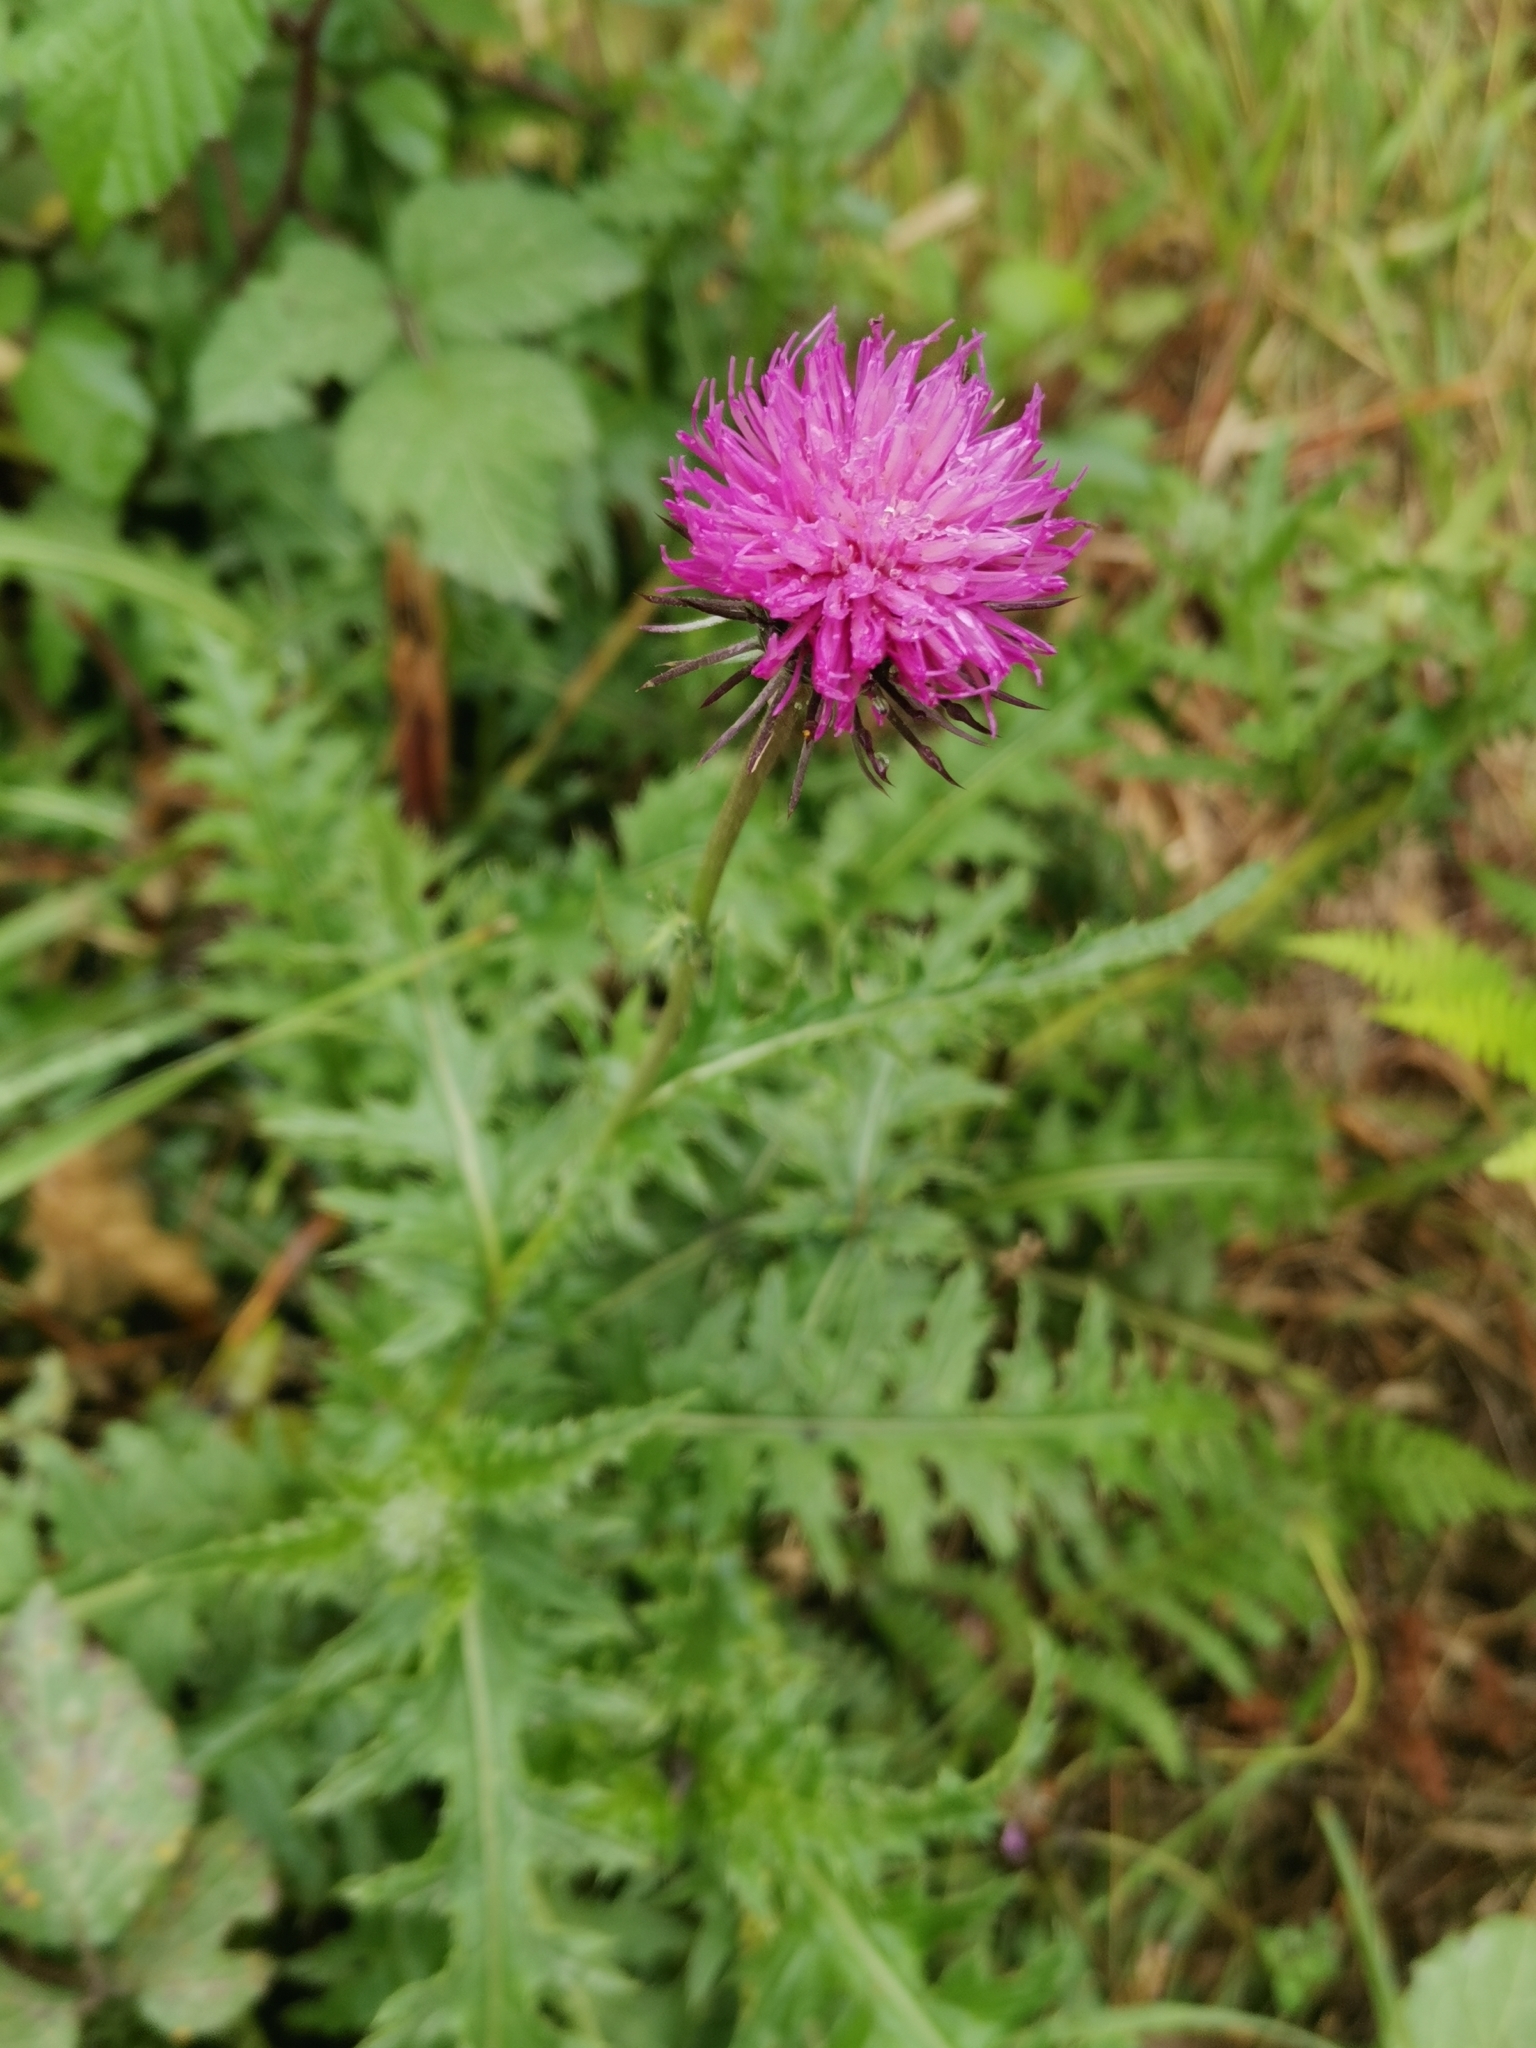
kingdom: Plantae
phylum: Tracheophyta
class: Magnoliopsida
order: Asterales
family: Asteraceae
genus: Carduus
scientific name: Carduus defloratus
